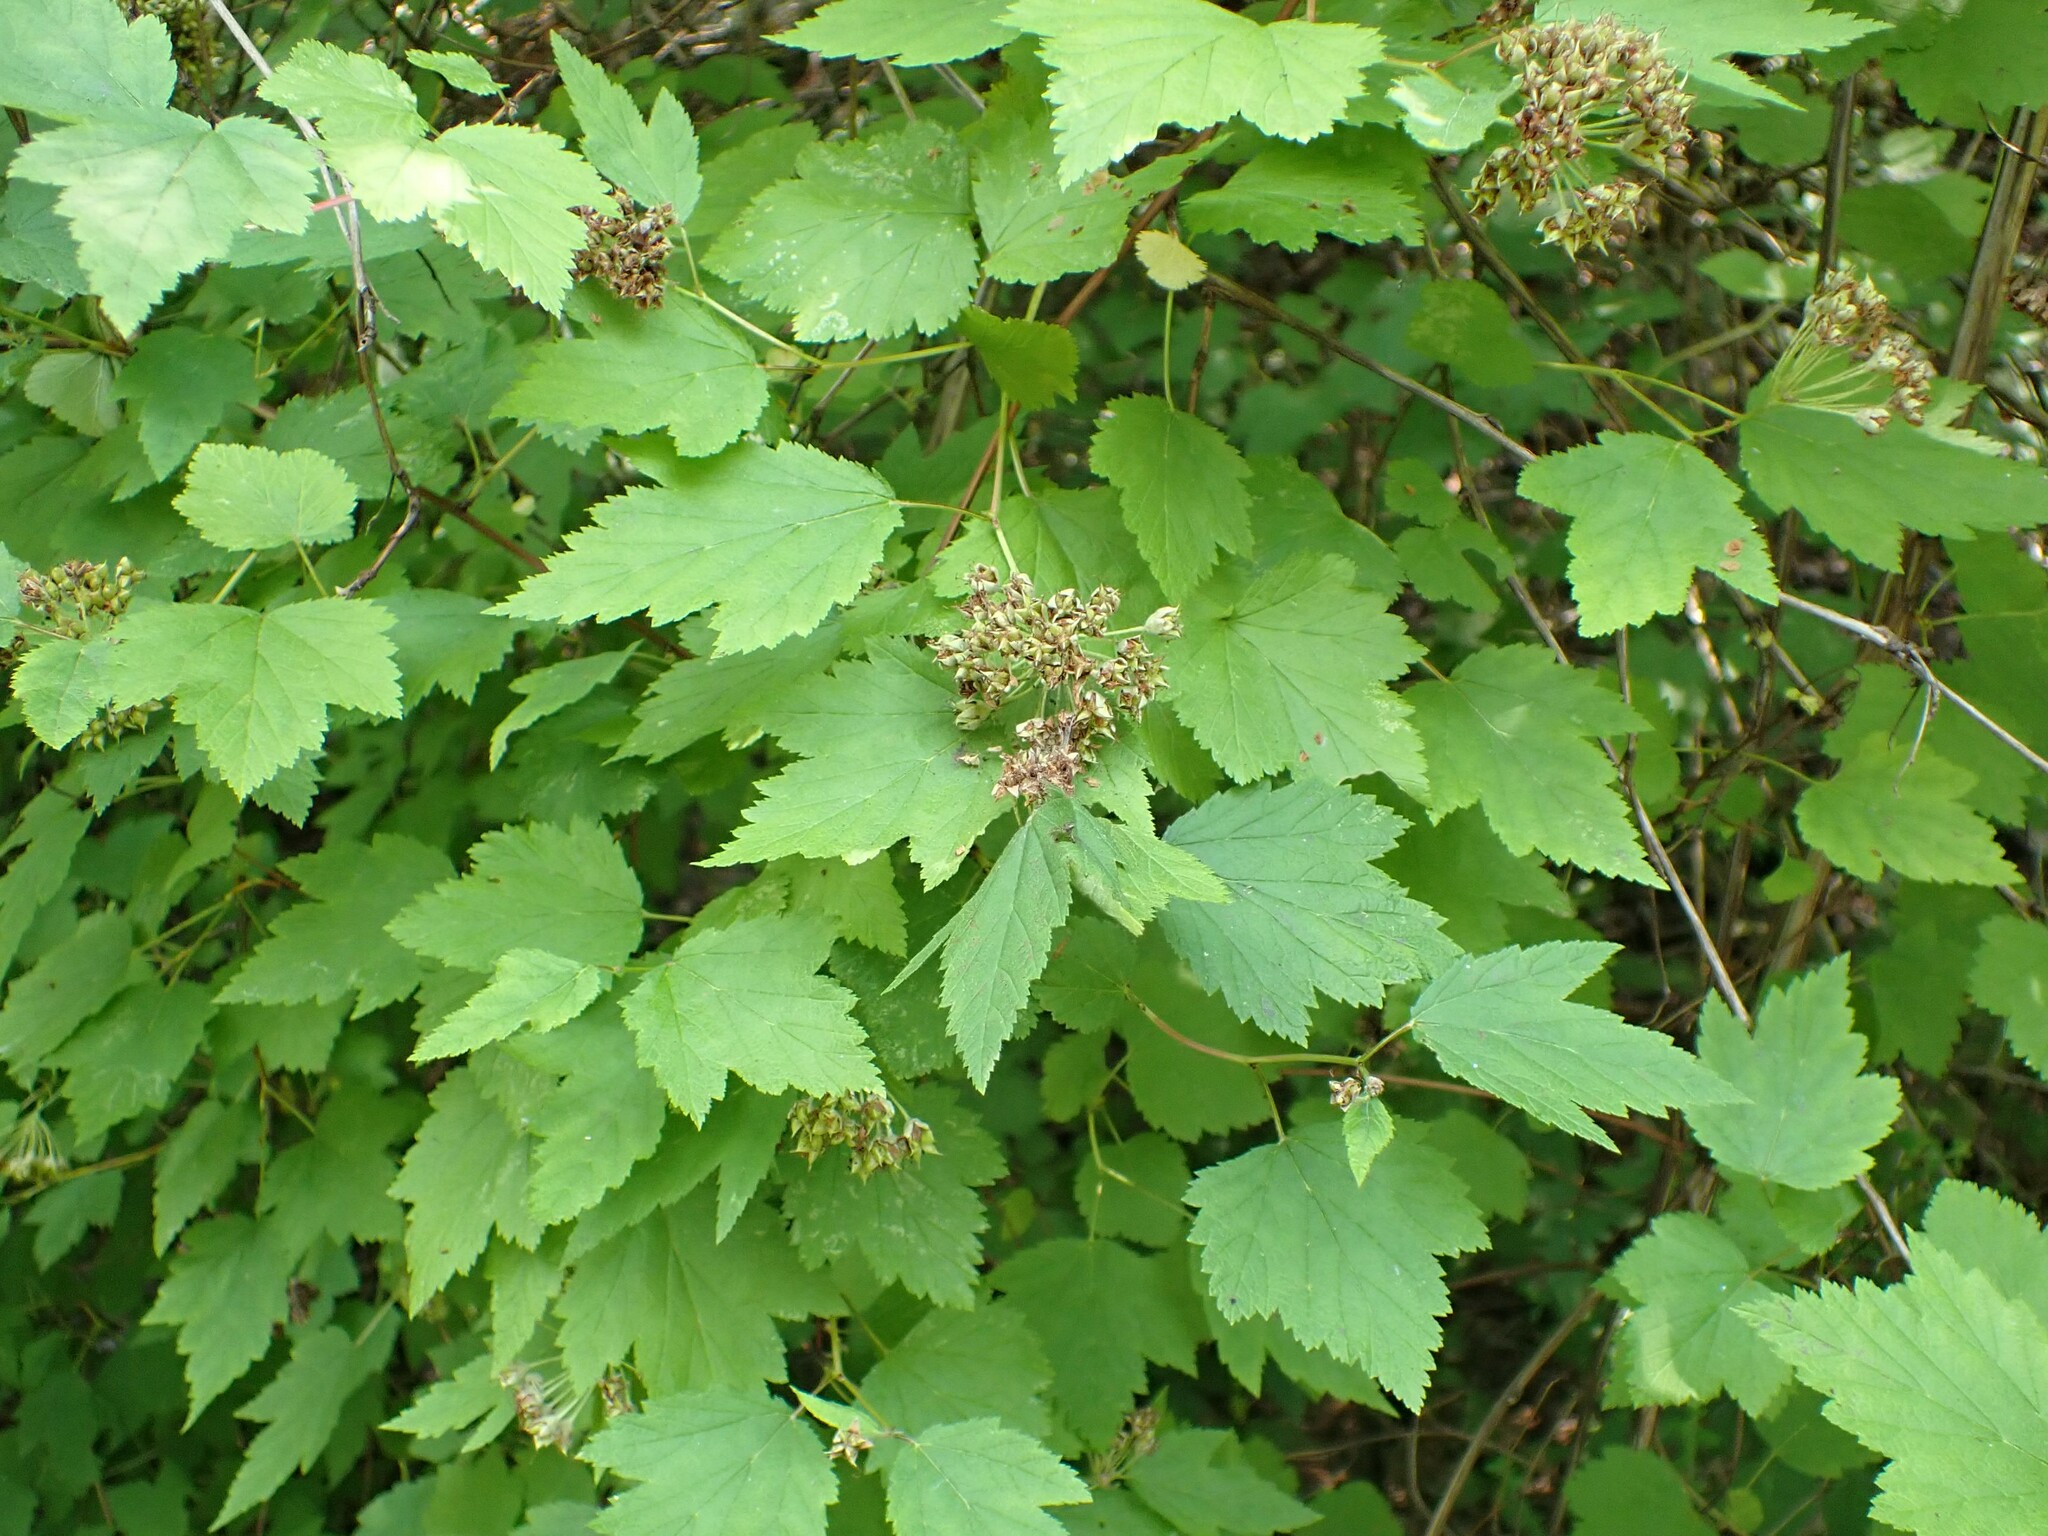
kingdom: Plantae
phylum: Tracheophyta
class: Magnoliopsida
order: Rosales
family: Rosaceae
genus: Physocarpus
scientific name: Physocarpus capitatus
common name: Pacific ninebark
